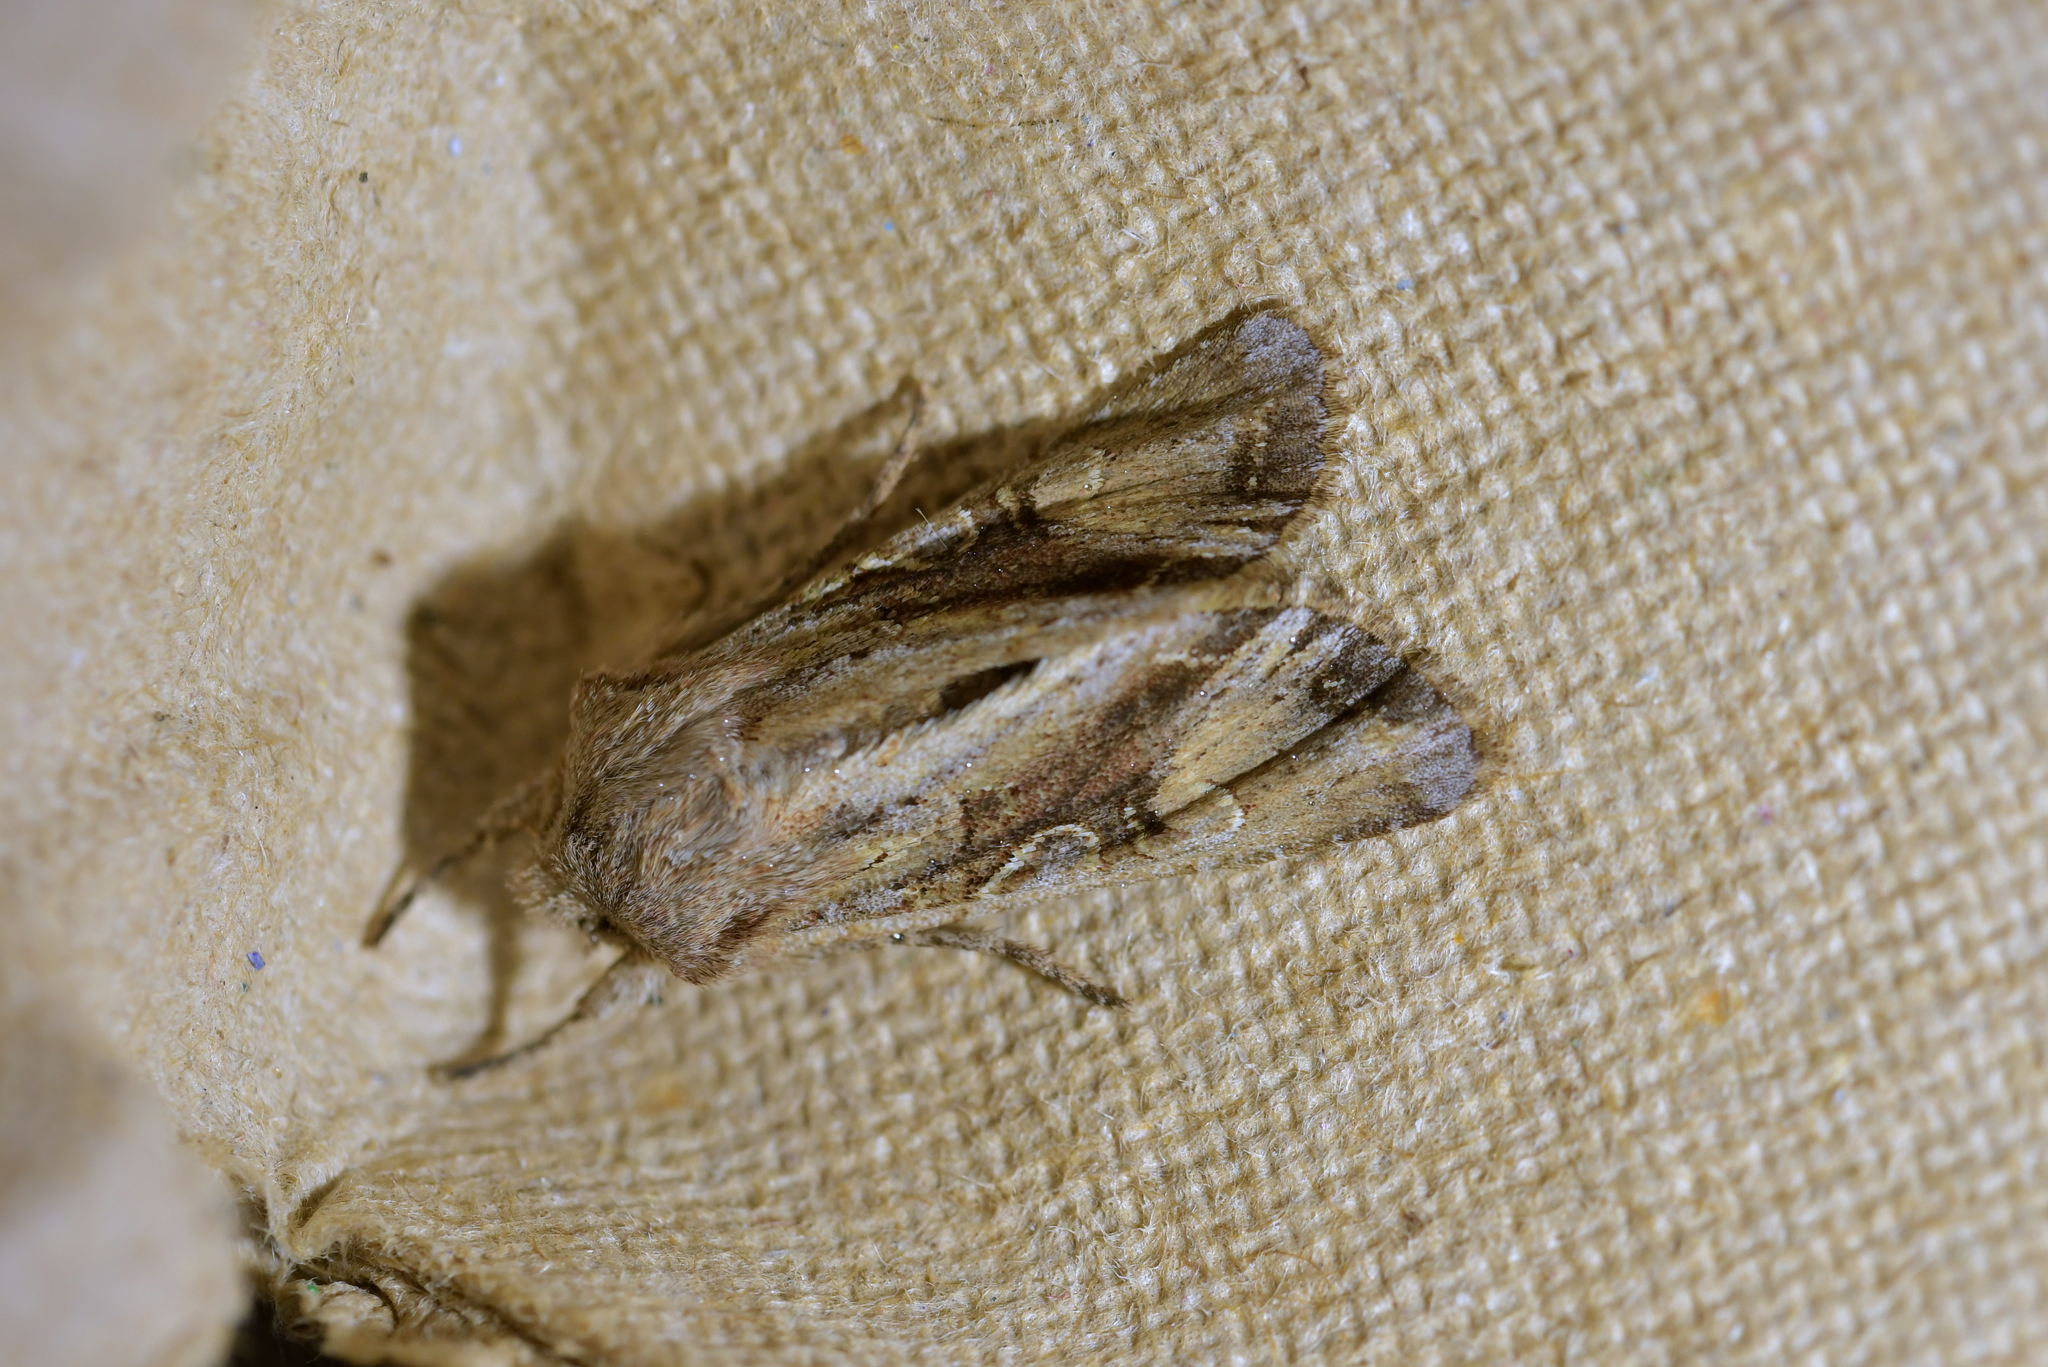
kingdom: Animalia
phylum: Arthropoda
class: Insecta
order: Lepidoptera
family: Noctuidae
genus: Ichneutica
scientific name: Ichneutica
